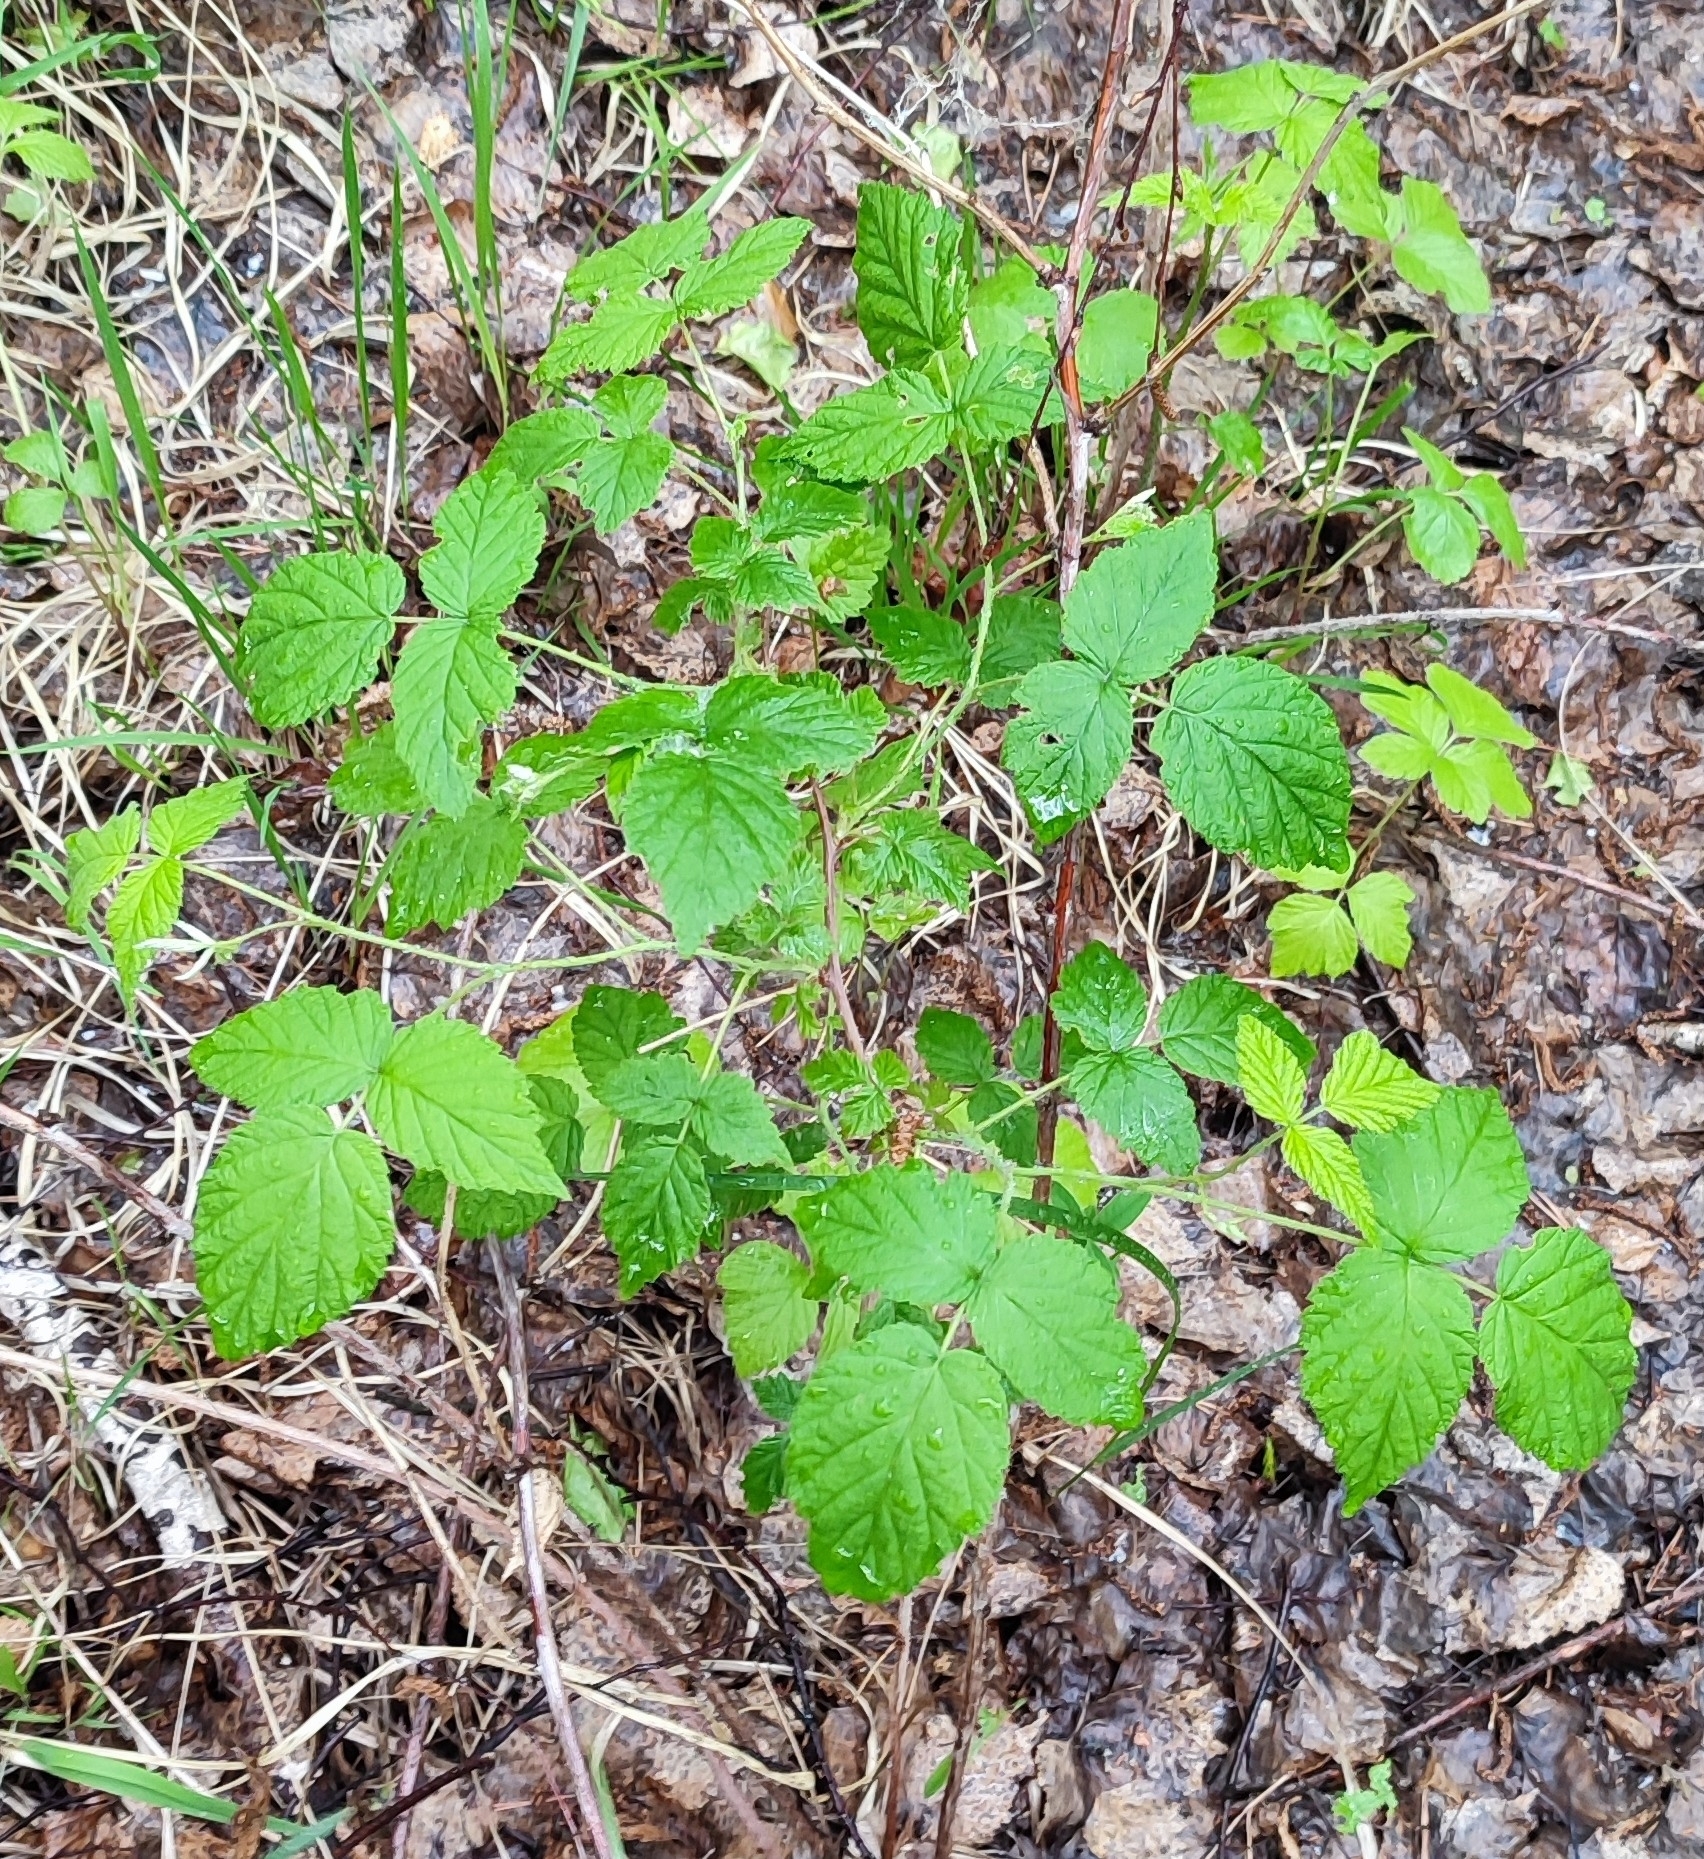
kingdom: Plantae
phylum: Tracheophyta
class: Magnoliopsida
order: Rosales
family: Rosaceae
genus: Rubus
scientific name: Rubus idaeus
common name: Raspberry
